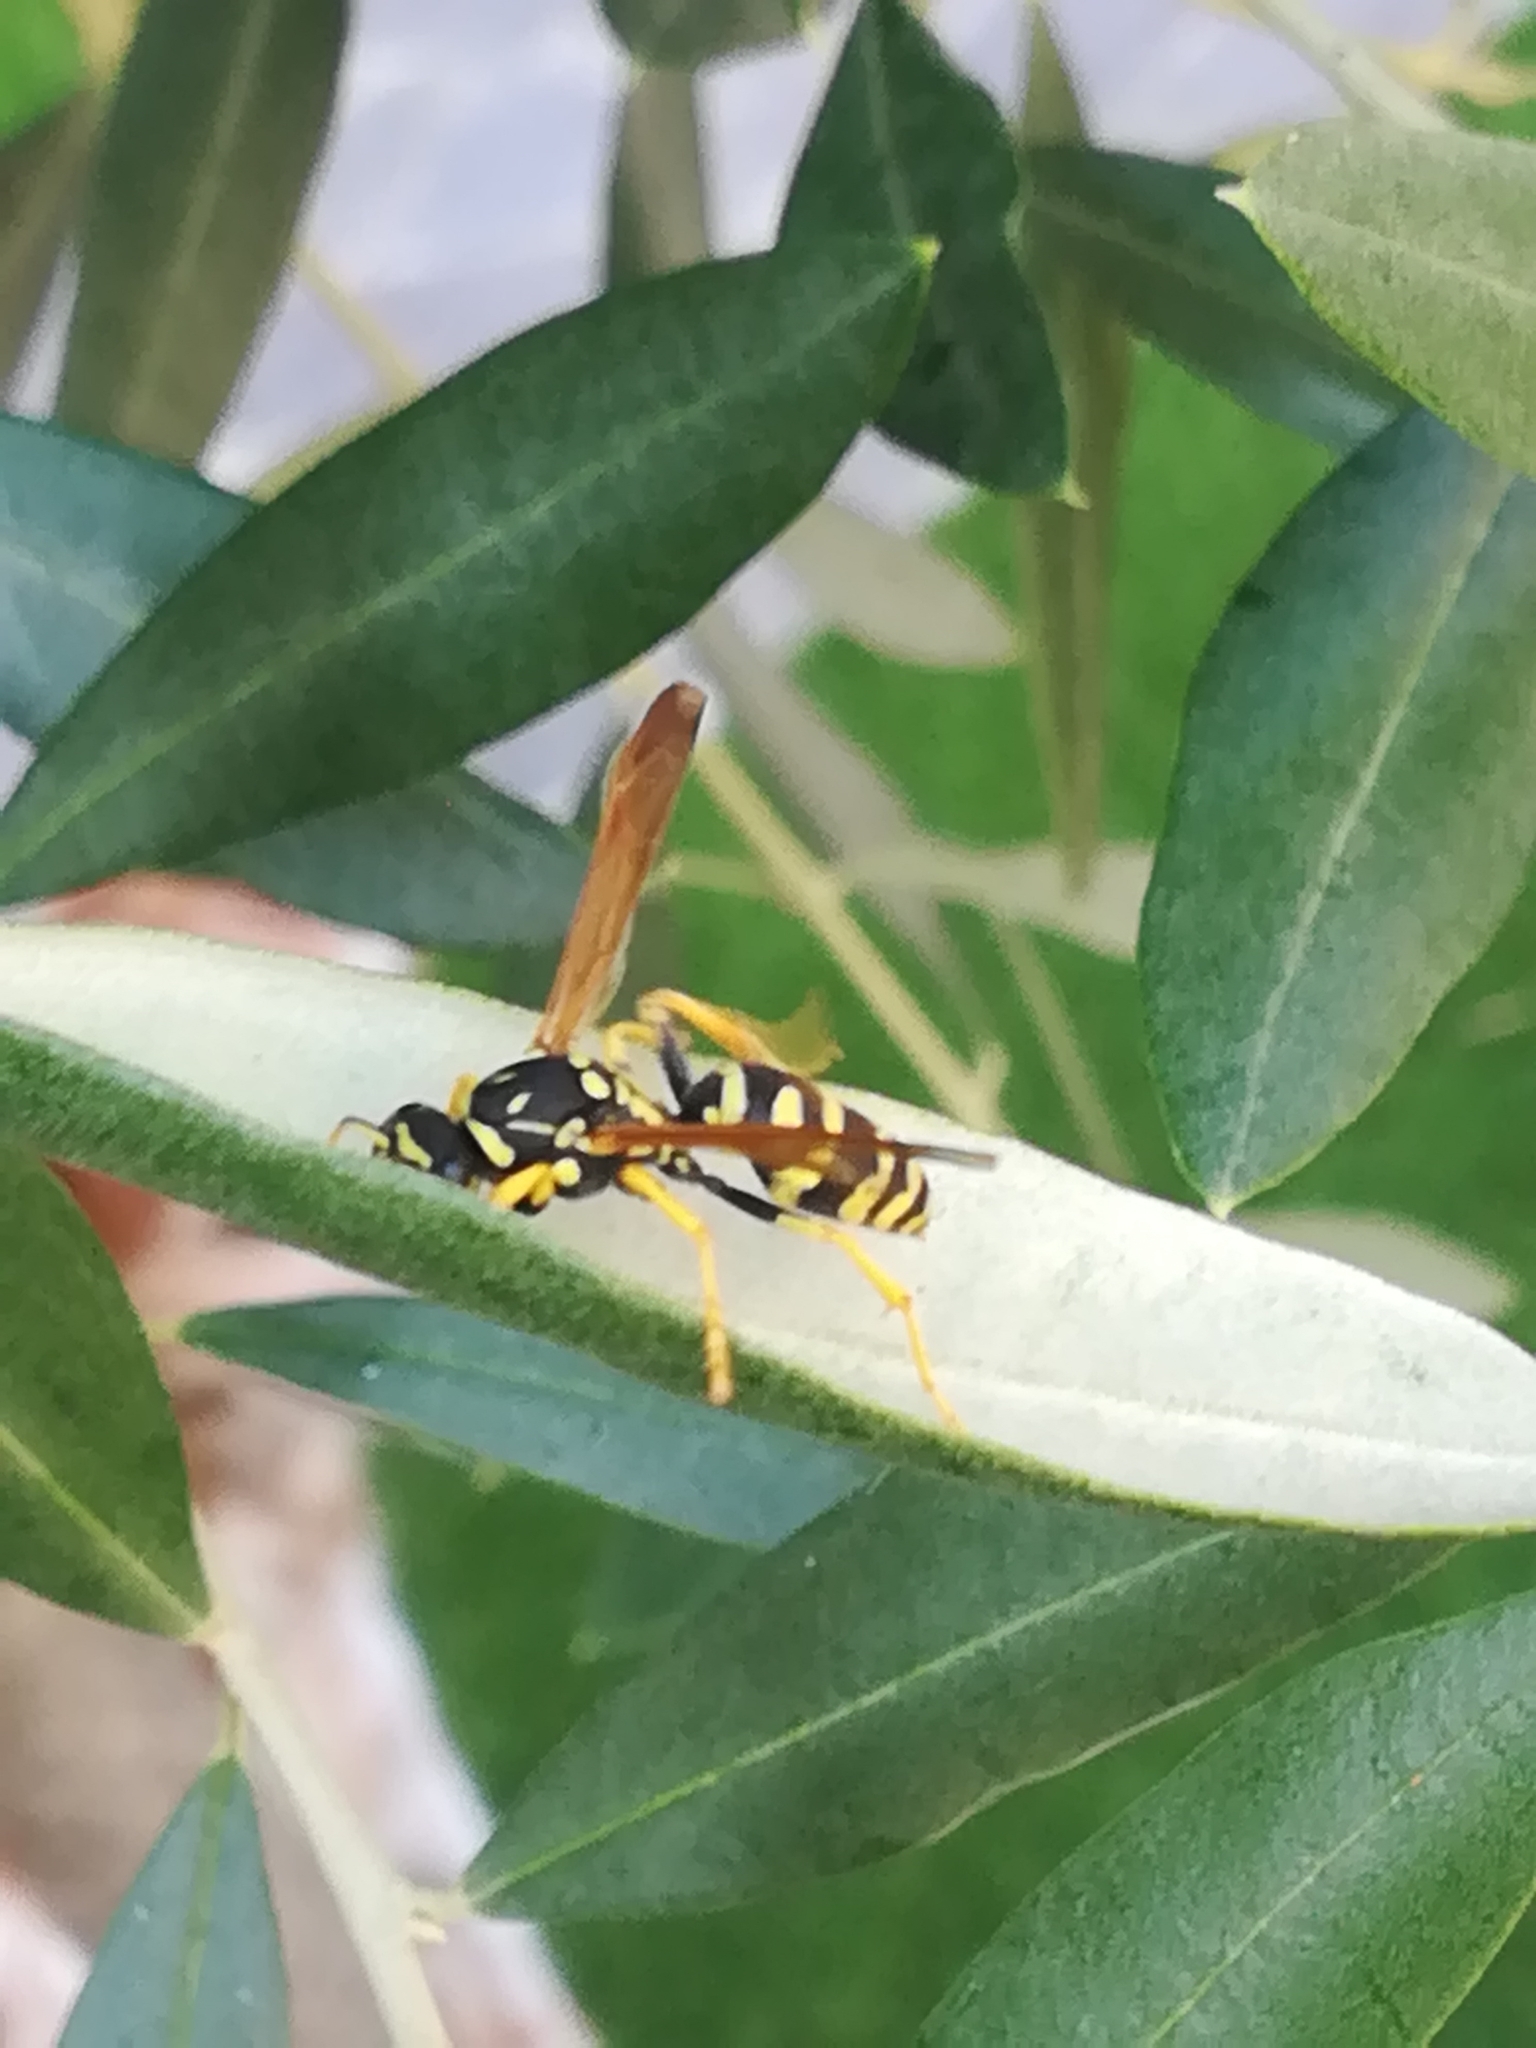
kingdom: Animalia
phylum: Arthropoda
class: Insecta
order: Hymenoptera
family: Eumenidae
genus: Polistes
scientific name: Polistes gallicus
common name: Paper wasp
